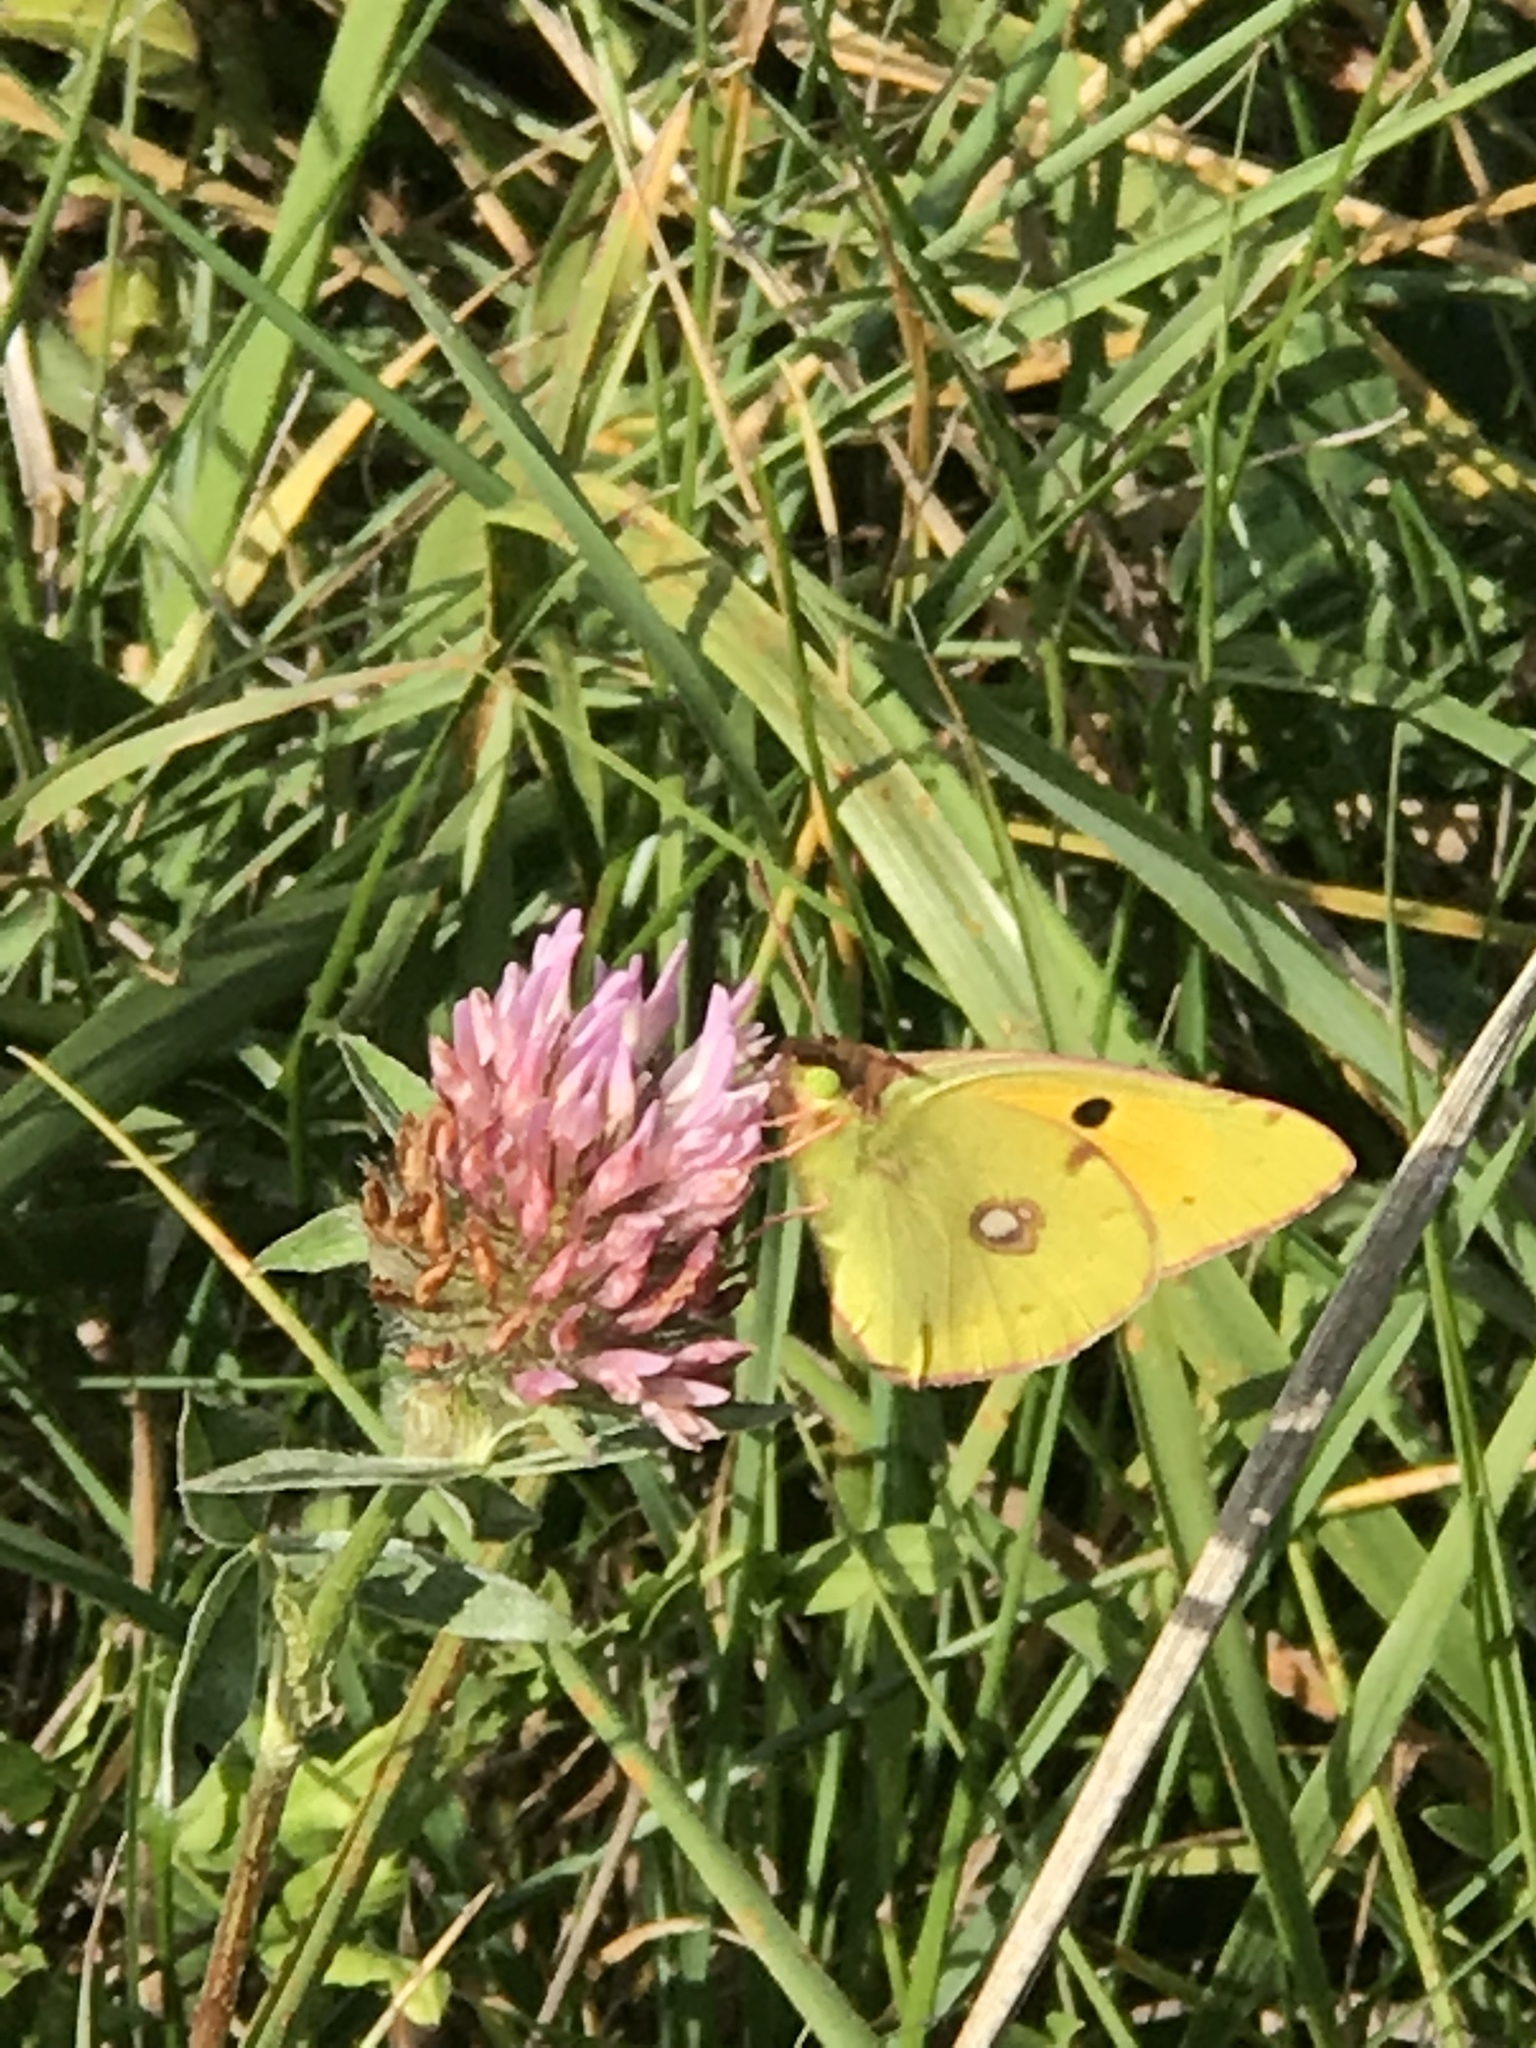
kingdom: Animalia
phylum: Arthropoda
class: Insecta
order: Lepidoptera
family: Pieridae
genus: Colias
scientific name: Colias croceus
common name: Clouded yellow
